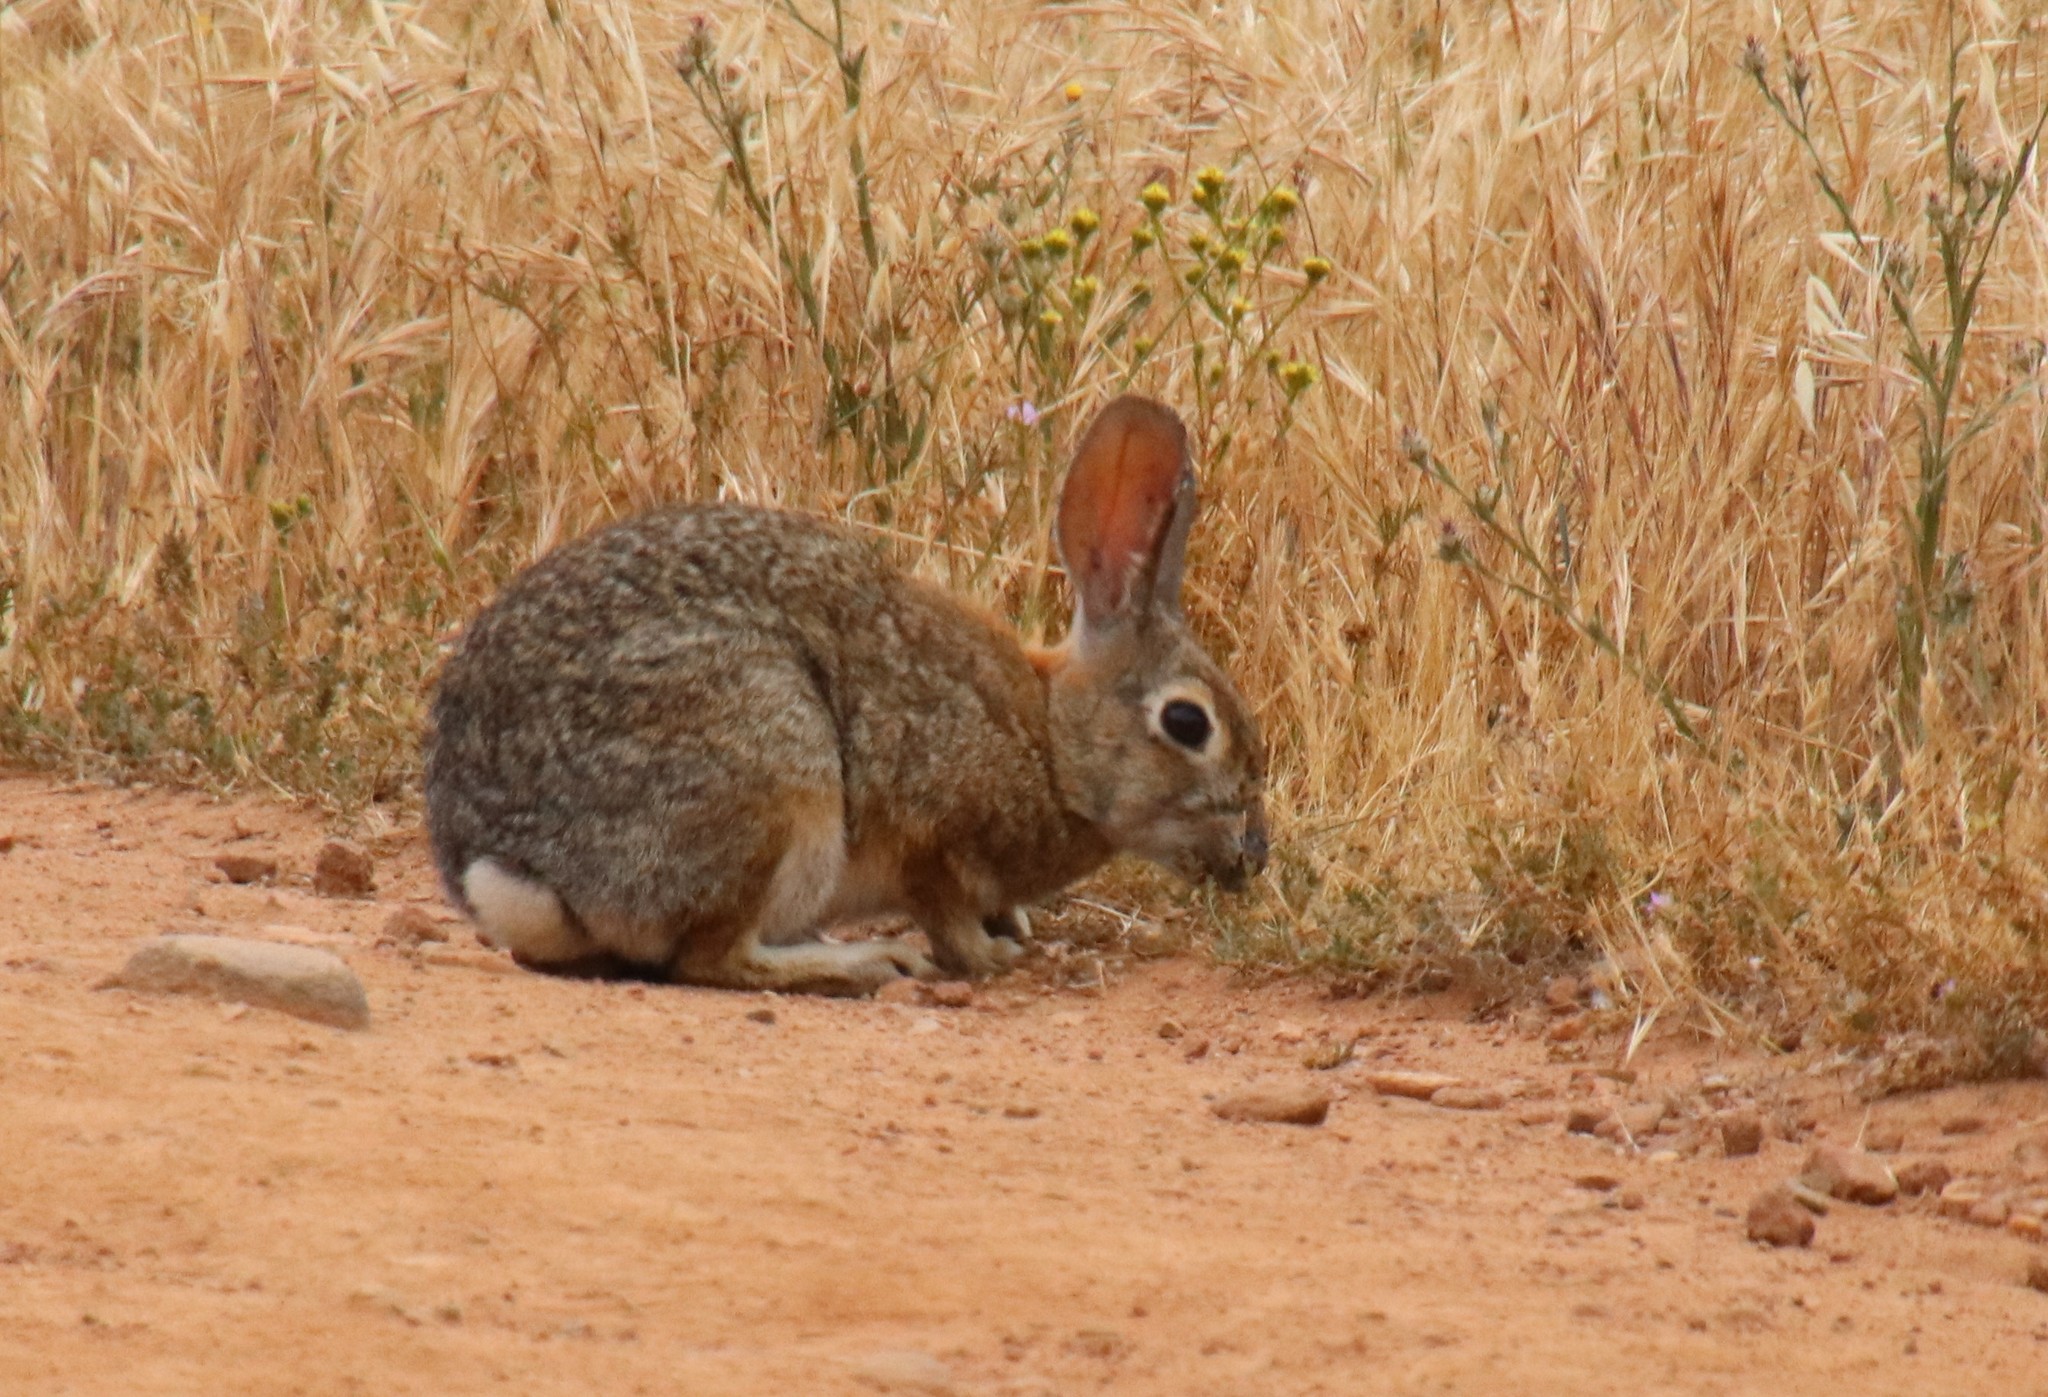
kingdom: Animalia
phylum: Chordata
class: Mammalia
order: Lagomorpha
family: Leporidae
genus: Sylvilagus
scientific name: Sylvilagus audubonii
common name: Desert cottontail
